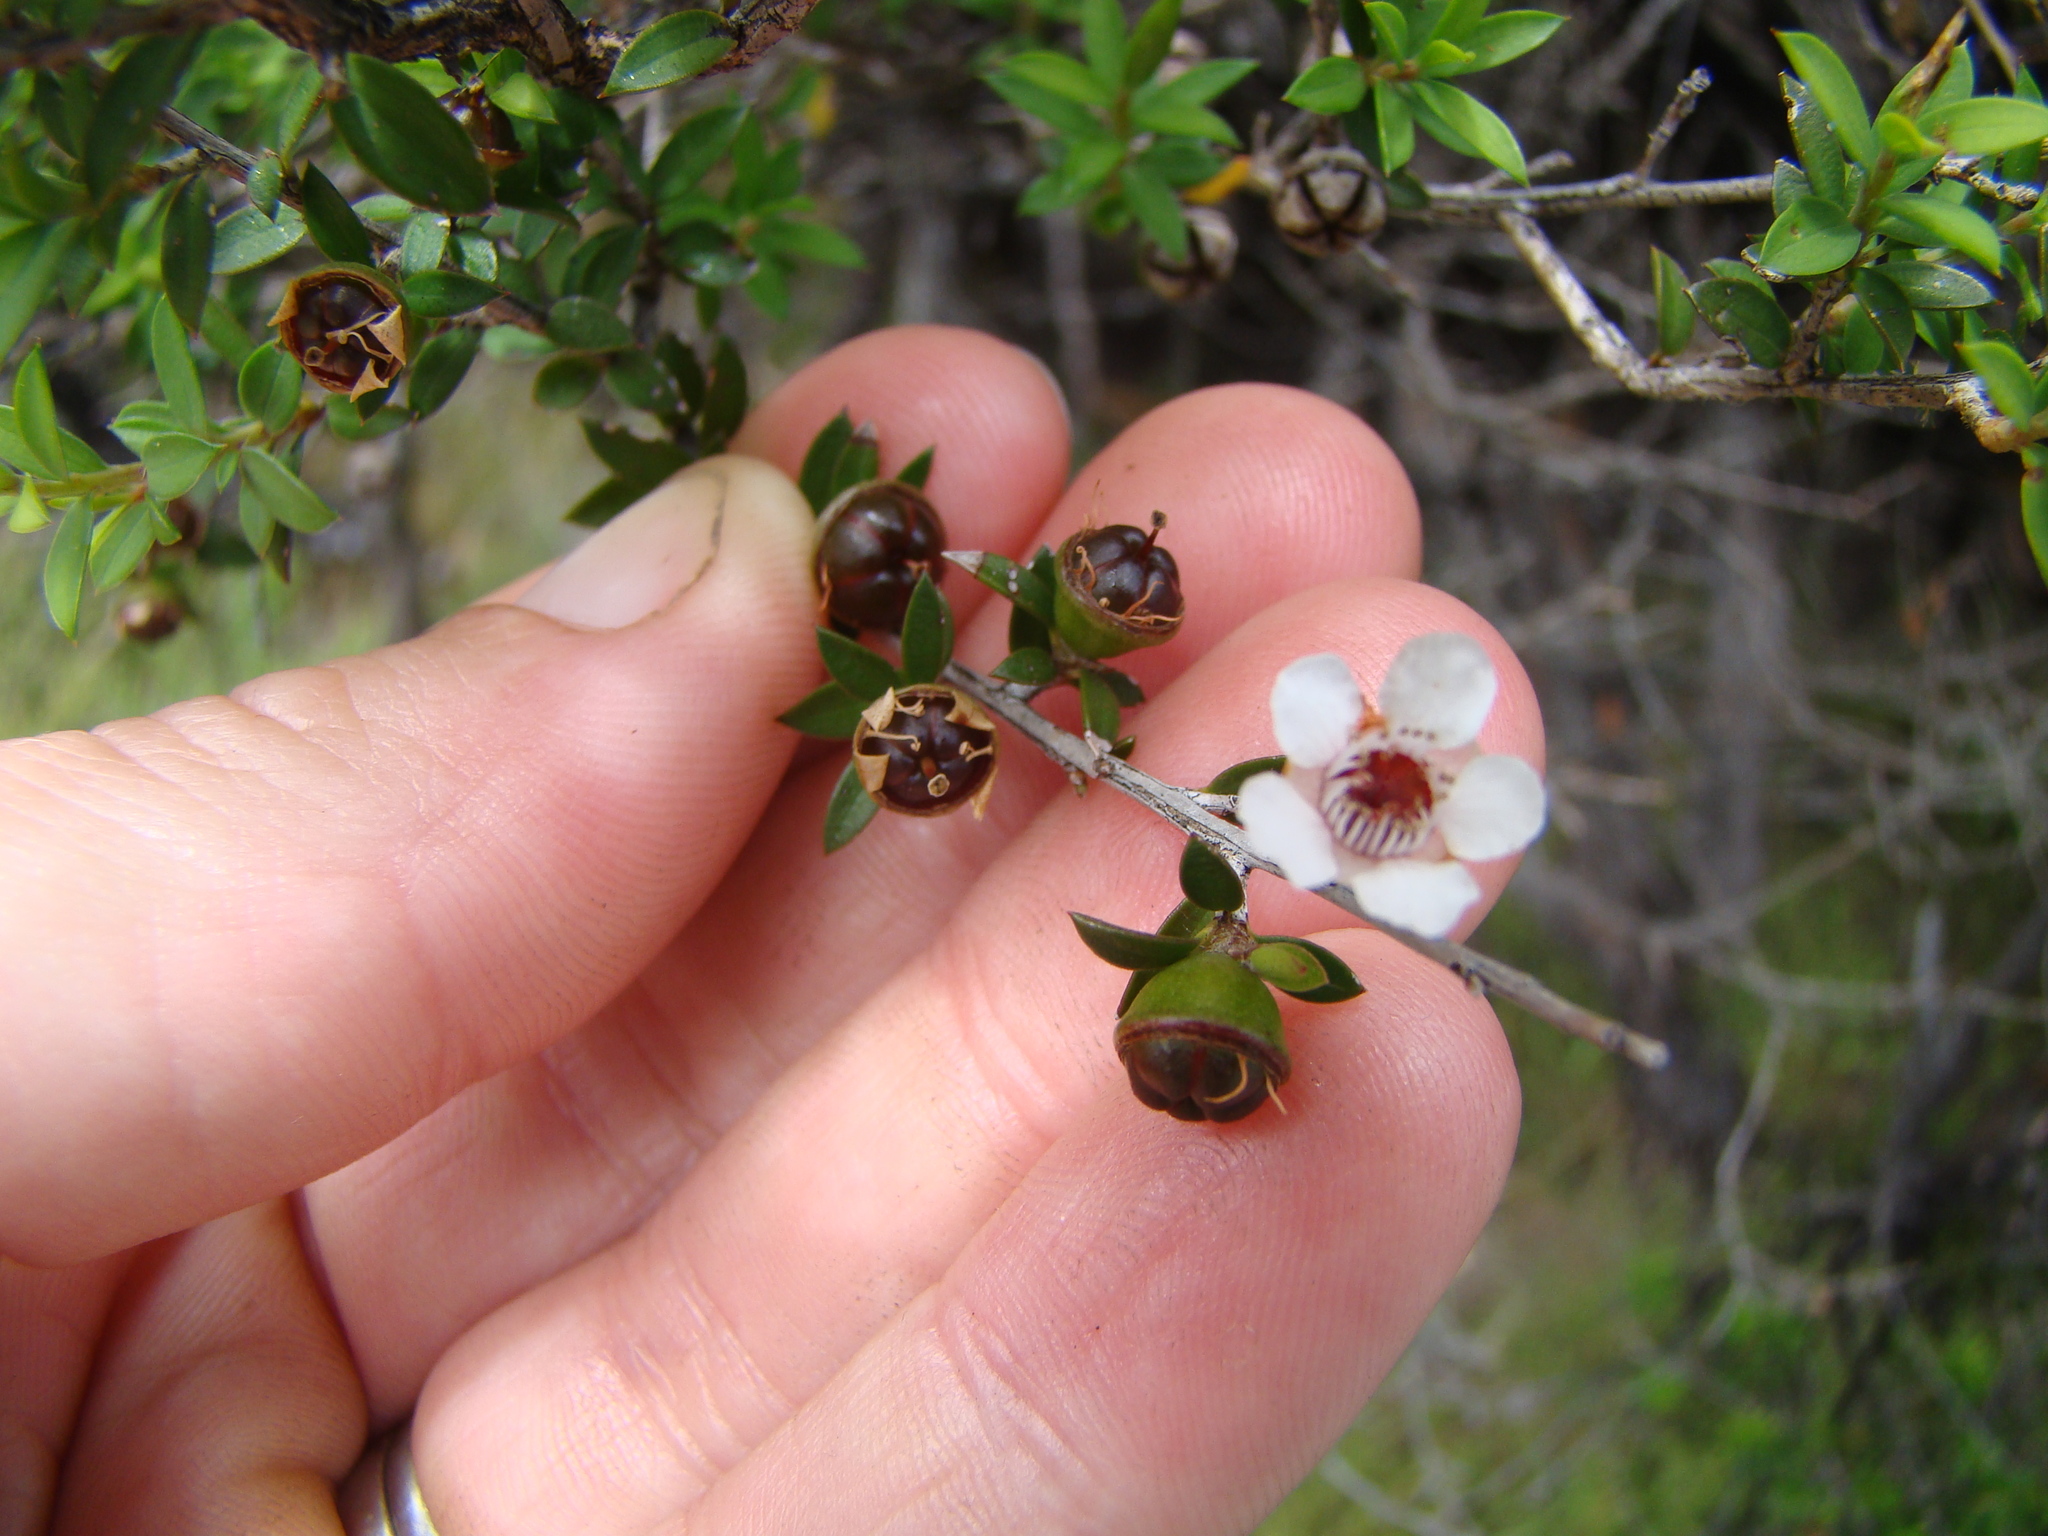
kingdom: Plantae
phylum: Tracheophyta
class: Magnoliopsida
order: Myrtales
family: Myrtaceae
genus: Leptospermum
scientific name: Leptospermum scoparium
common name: Broom tea-tree
